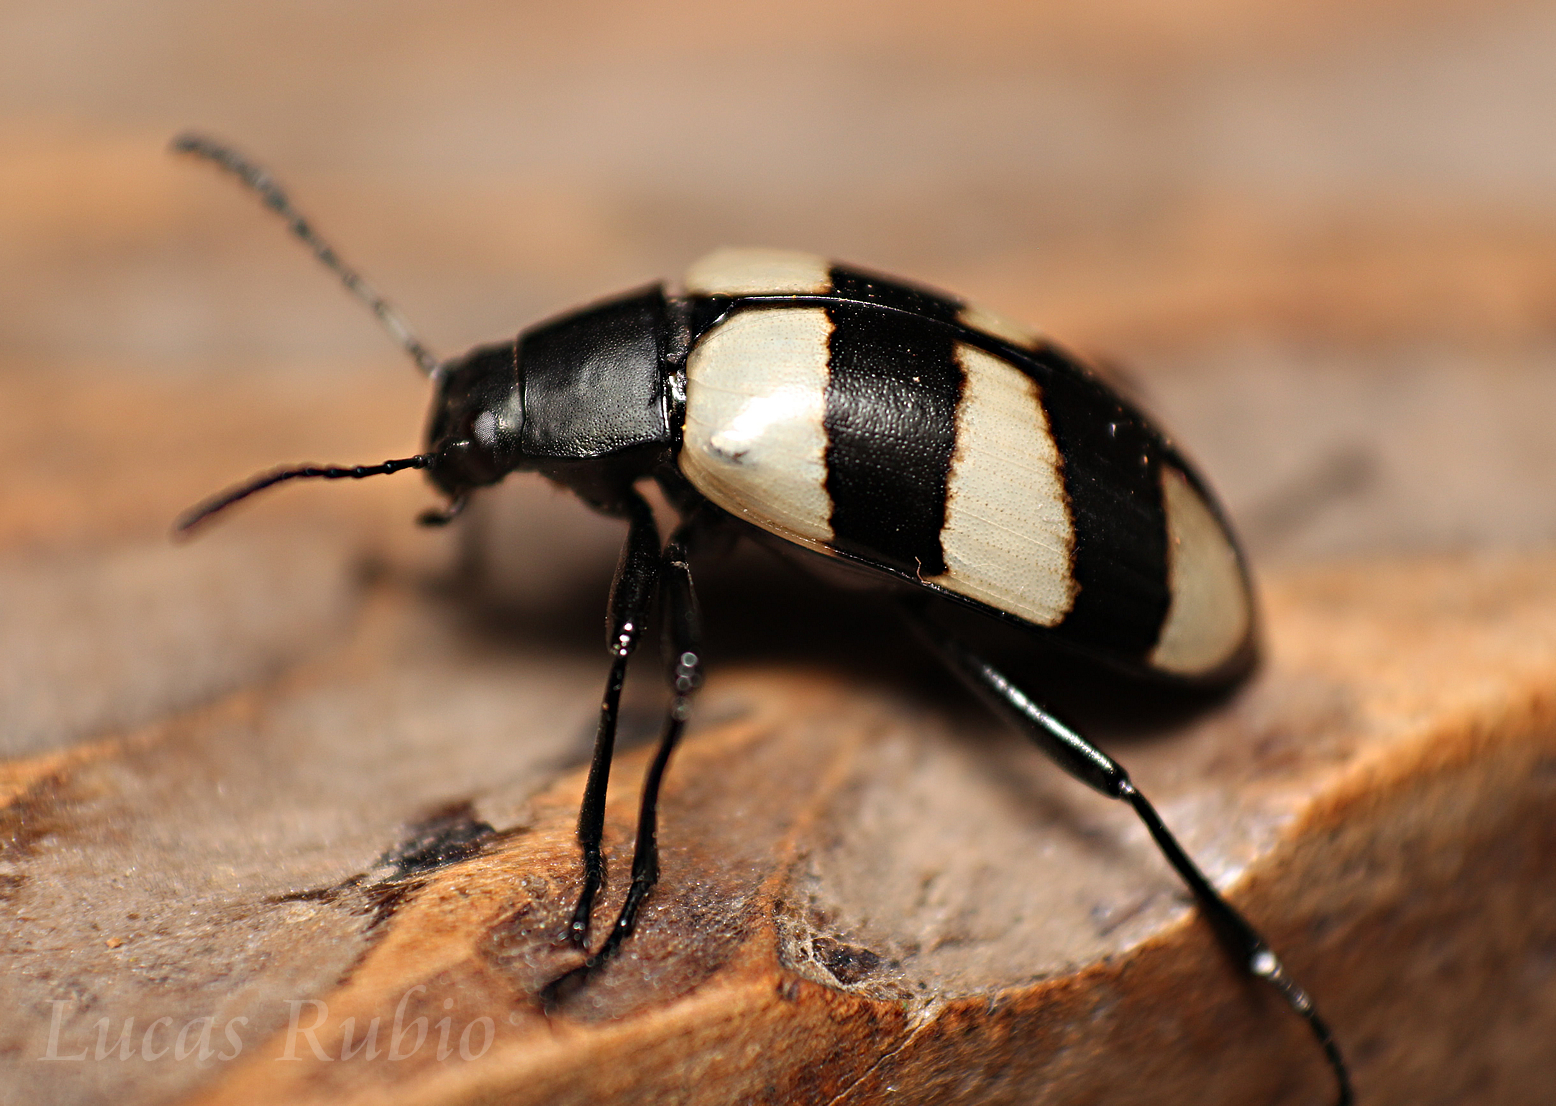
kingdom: Animalia
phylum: Arthropoda
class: Insecta
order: Coleoptera
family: Tenebrionidae
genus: Poecilesthus
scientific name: Poecilesthus
